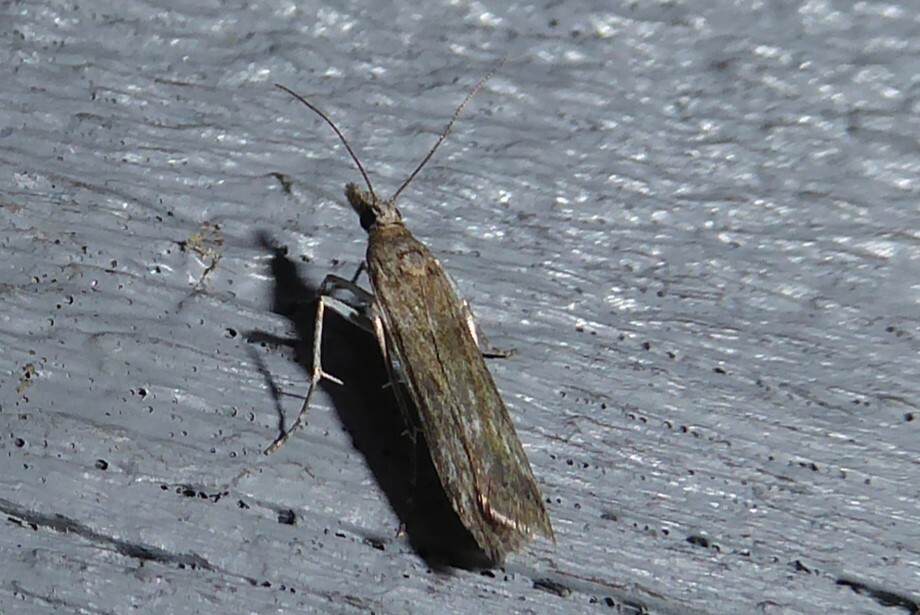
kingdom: Animalia
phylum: Arthropoda
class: Insecta
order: Lepidoptera
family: Crambidae
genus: Eudonia
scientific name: Eudonia leptalea
